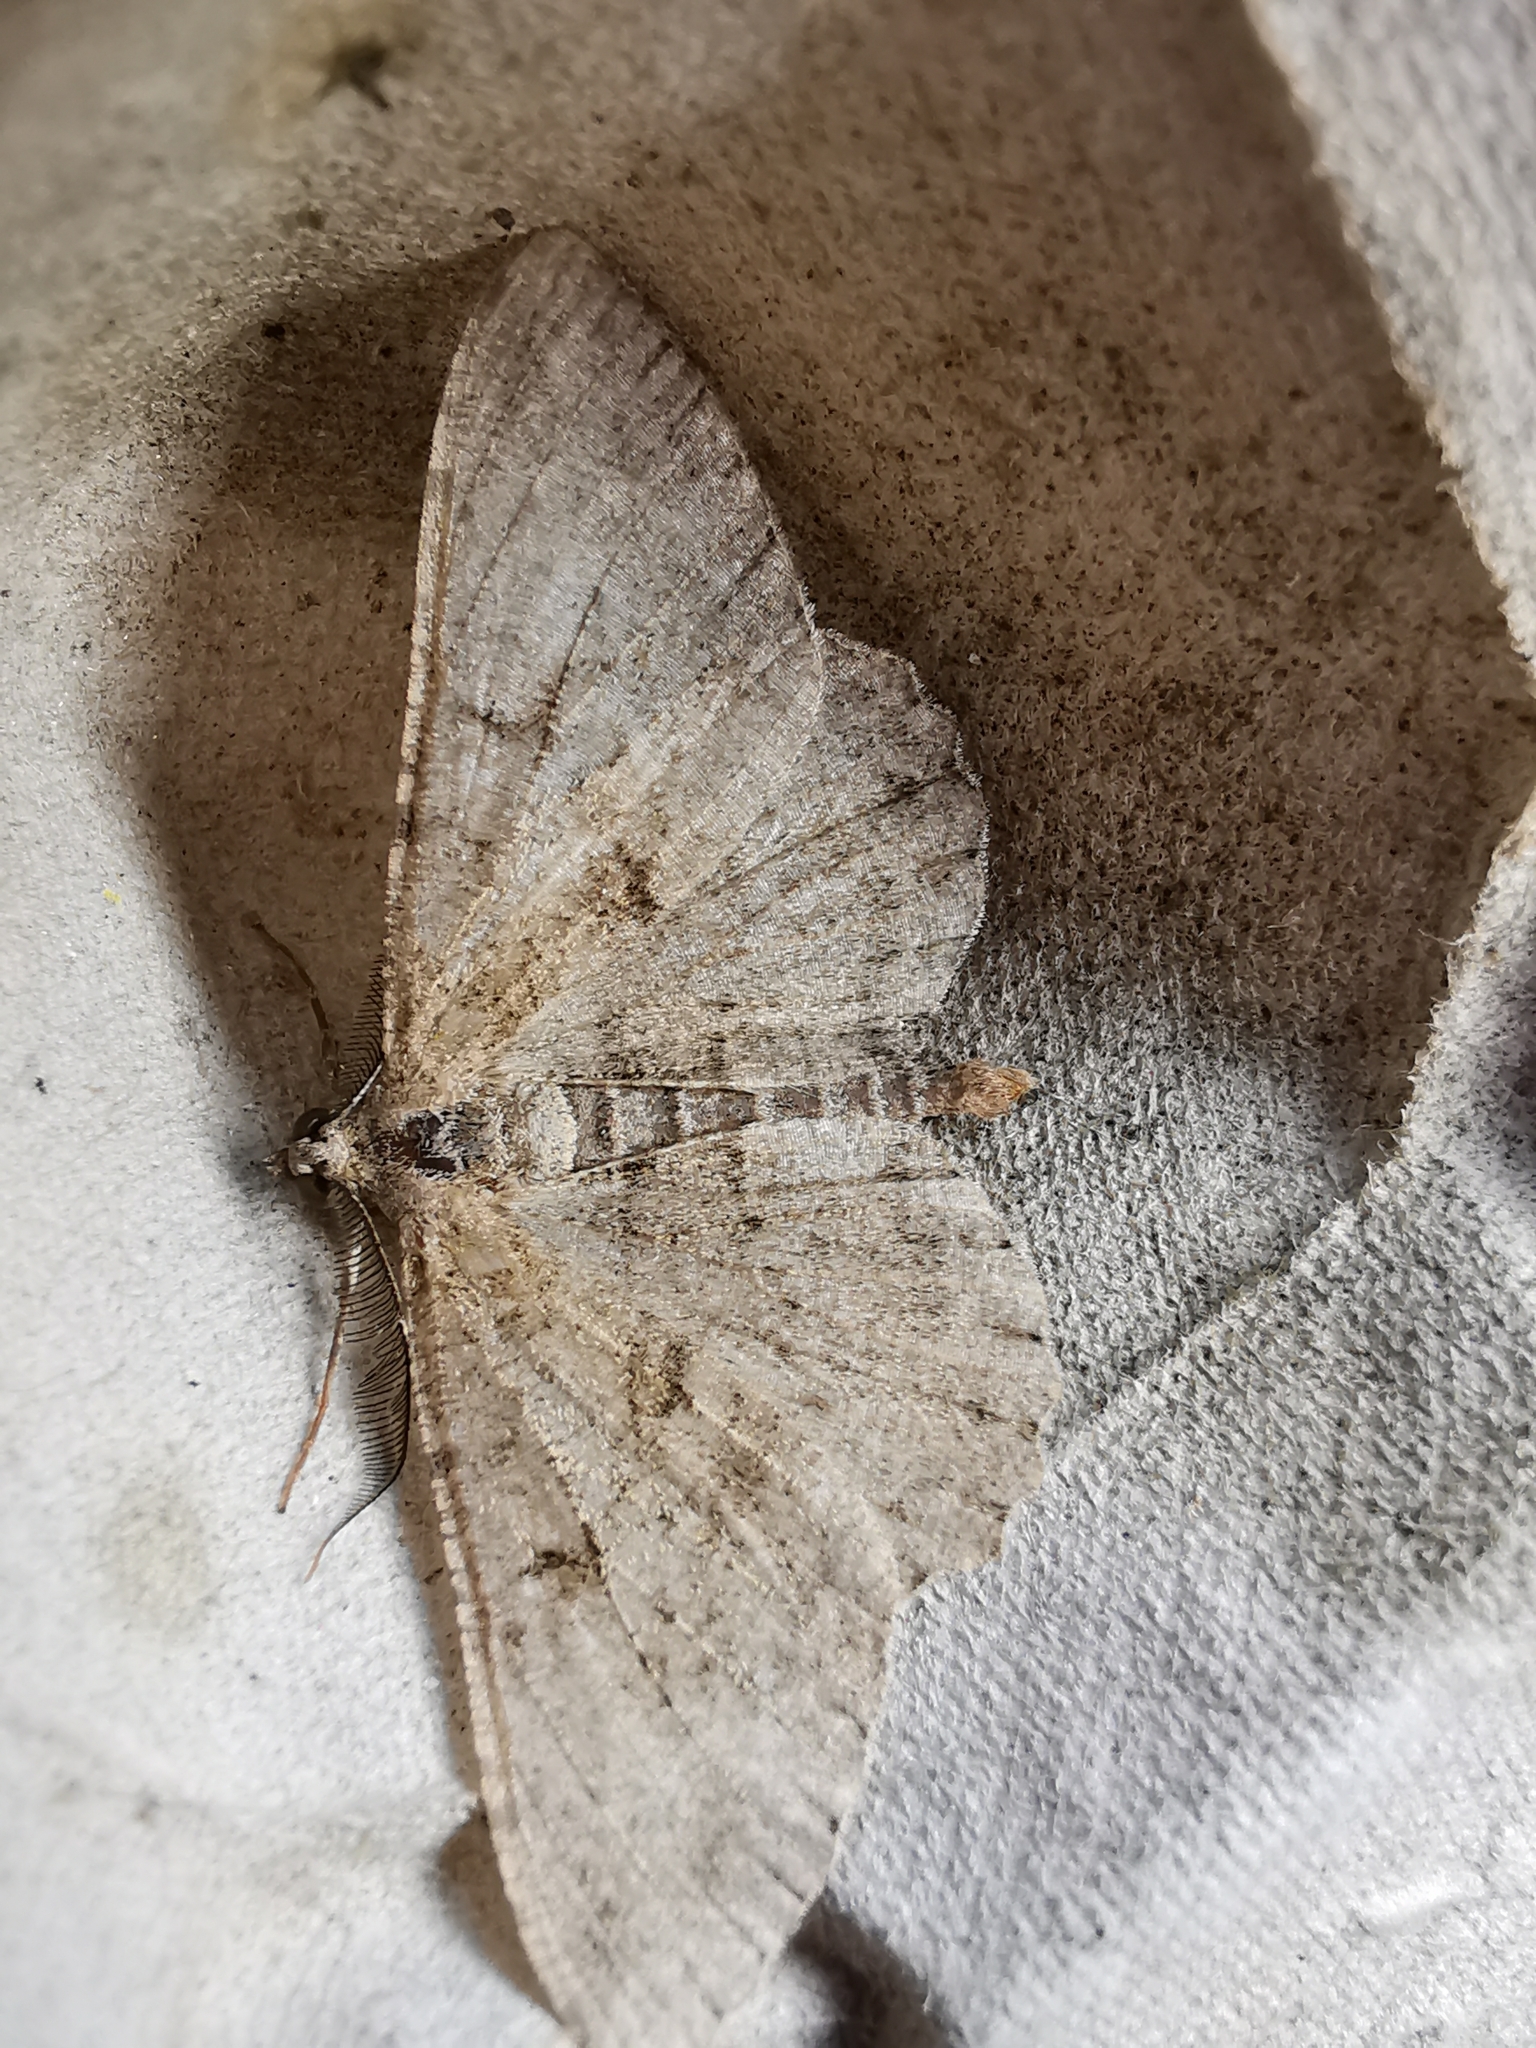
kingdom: Animalia
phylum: Arthropoda
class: Insecta
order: Lepidoptera
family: Geometridae
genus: Peribatodes
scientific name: Peribatodes rhomboidaria
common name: Willow beauty
